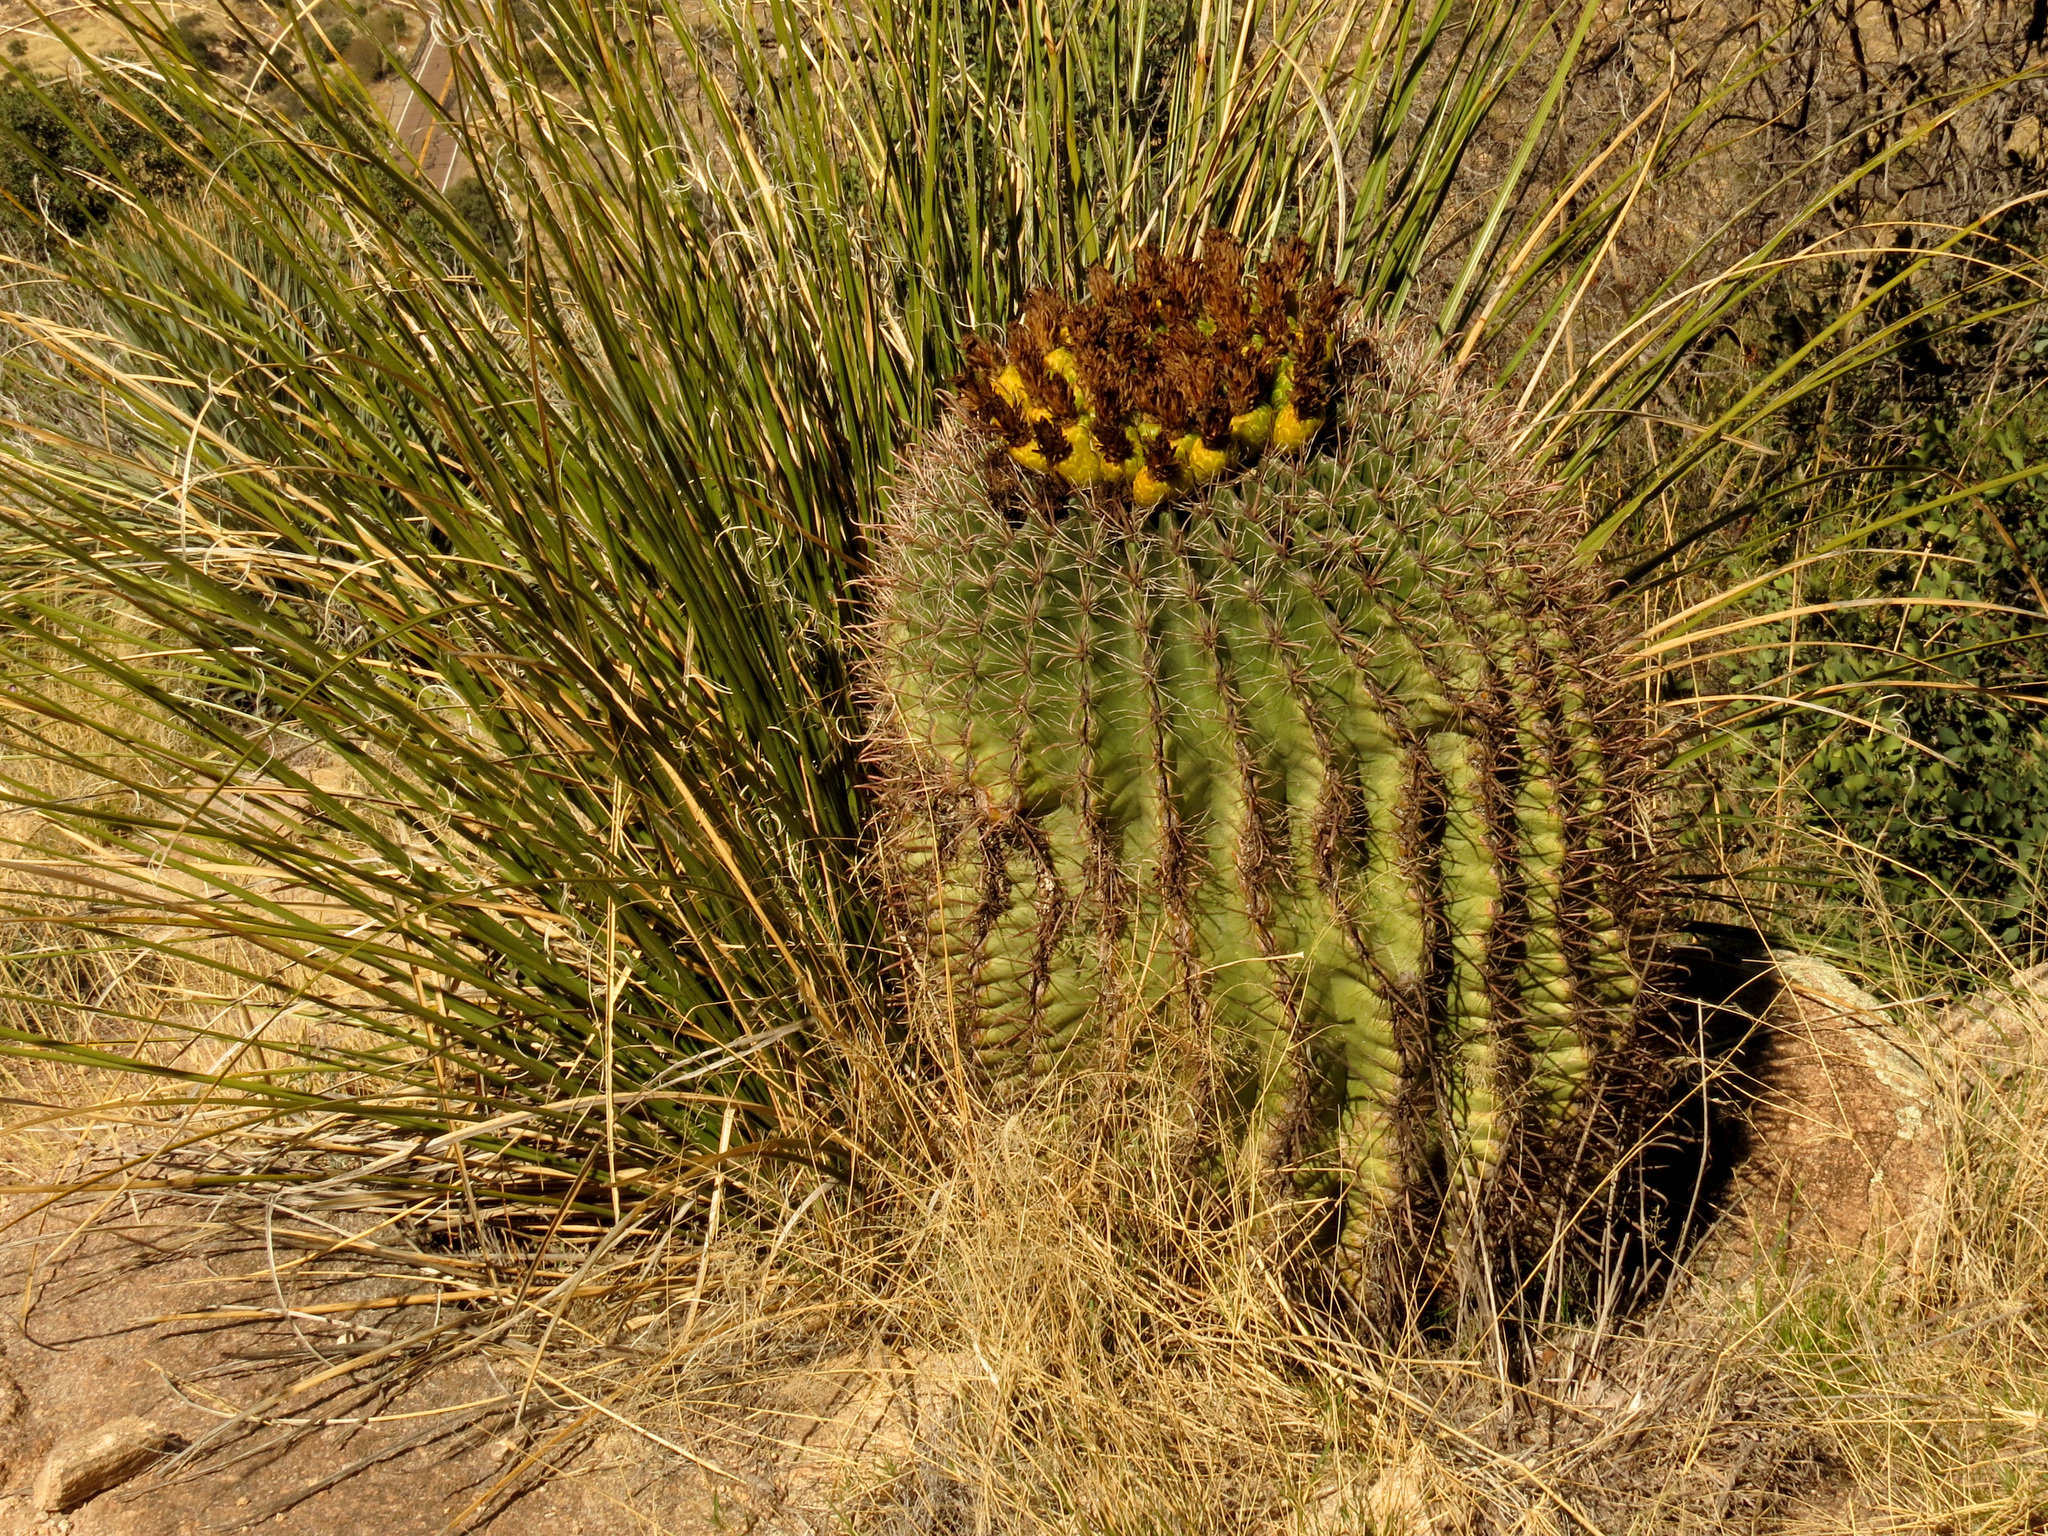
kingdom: Plantae
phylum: Tracheophyta
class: Magnoliopsida
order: Caryophyllales
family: Cactaceae
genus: Ferocactus
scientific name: Ferocactus wislizeni
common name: Candy barrel cactus
